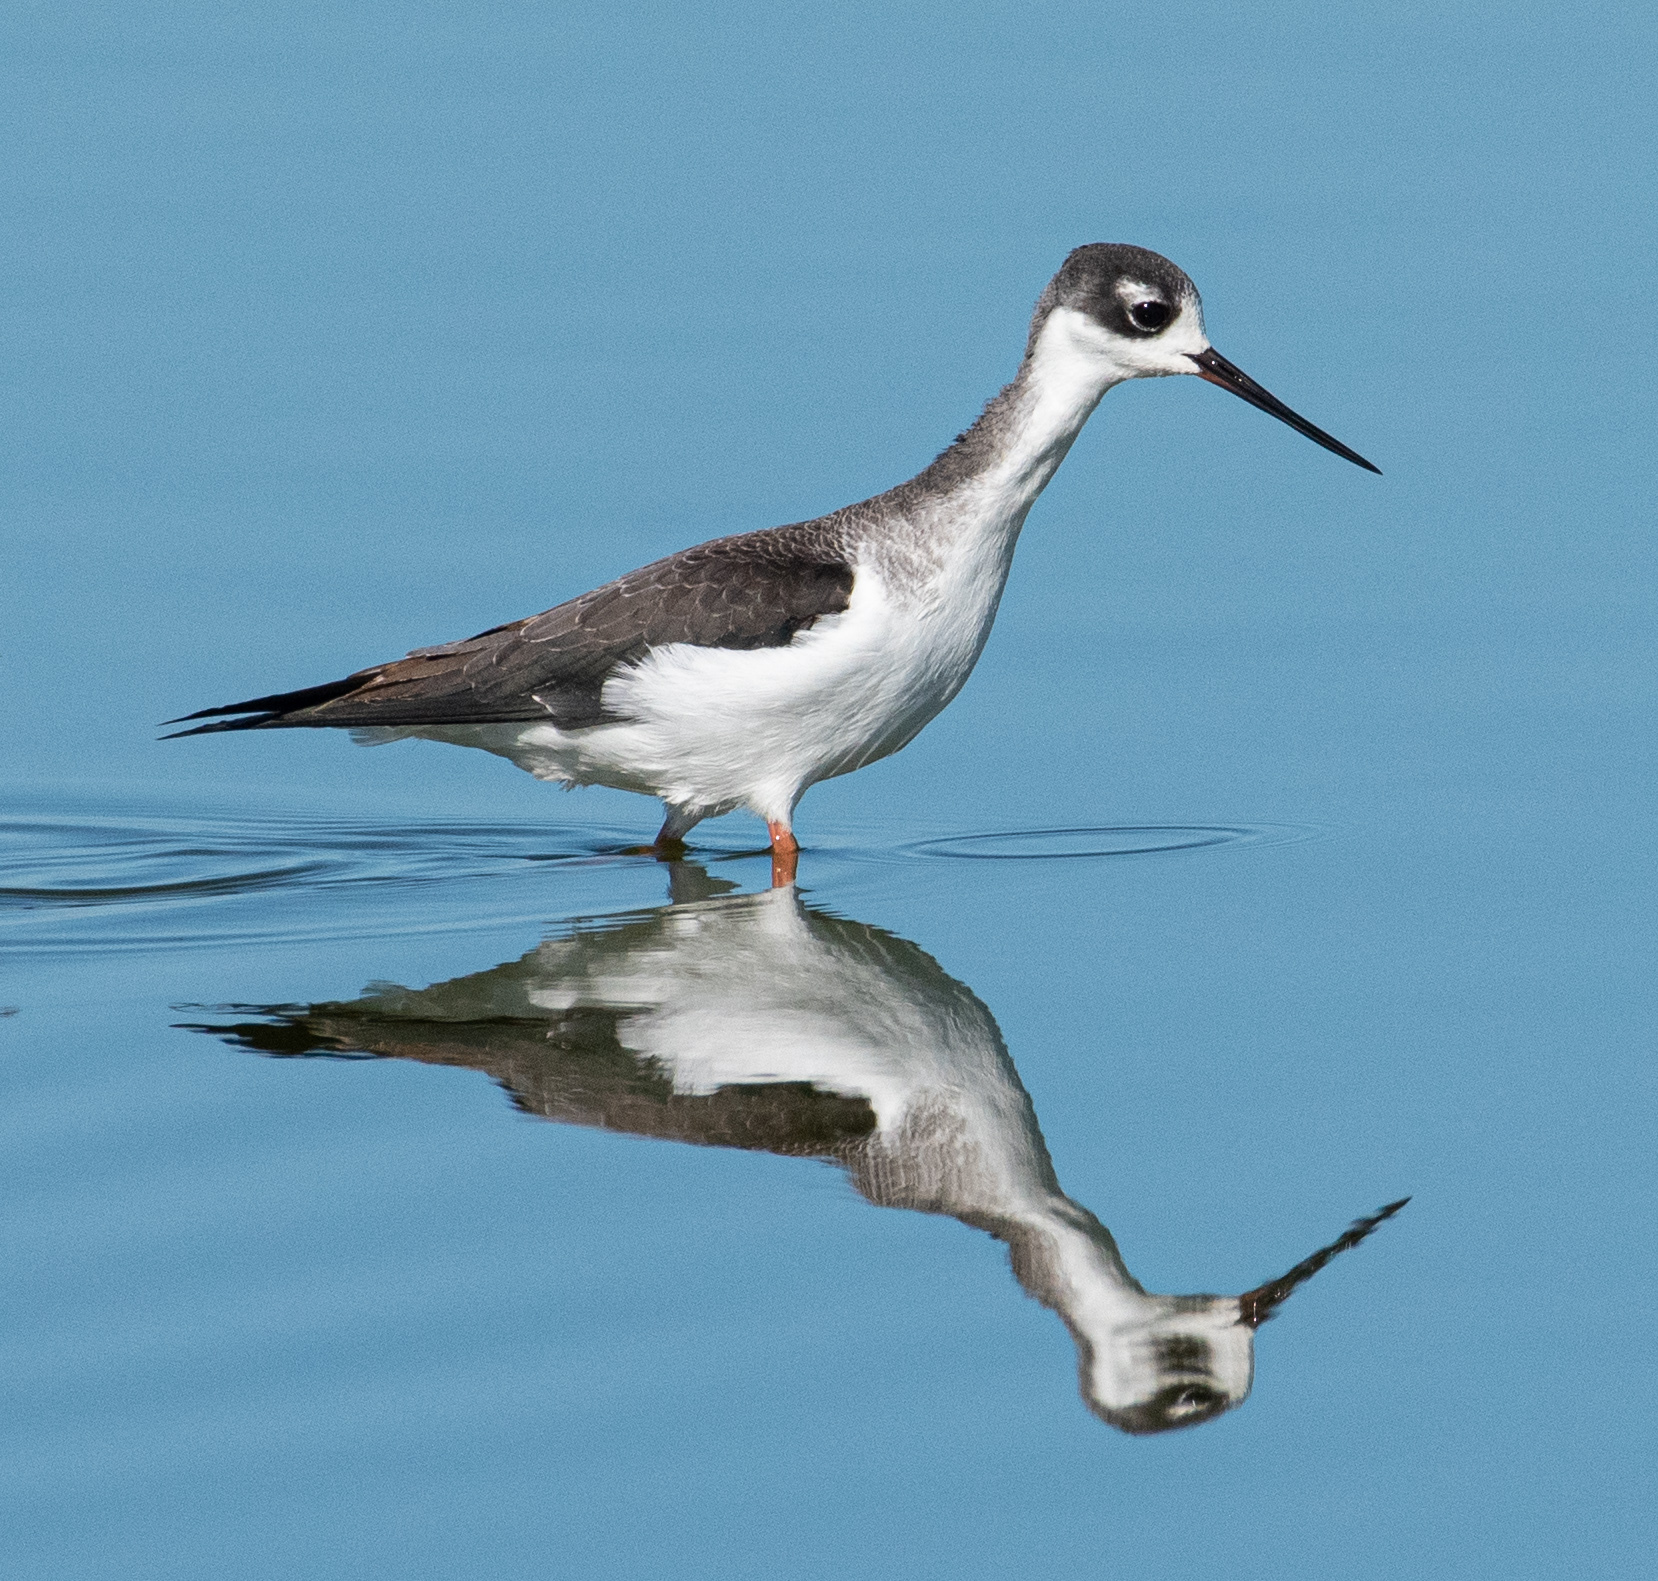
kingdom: Animalia
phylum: Chordata
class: Aves
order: Charadriiformes
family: Recurvirostridae
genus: Himantopus
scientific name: Himantopus mexicanus
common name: Black-necked stilt
